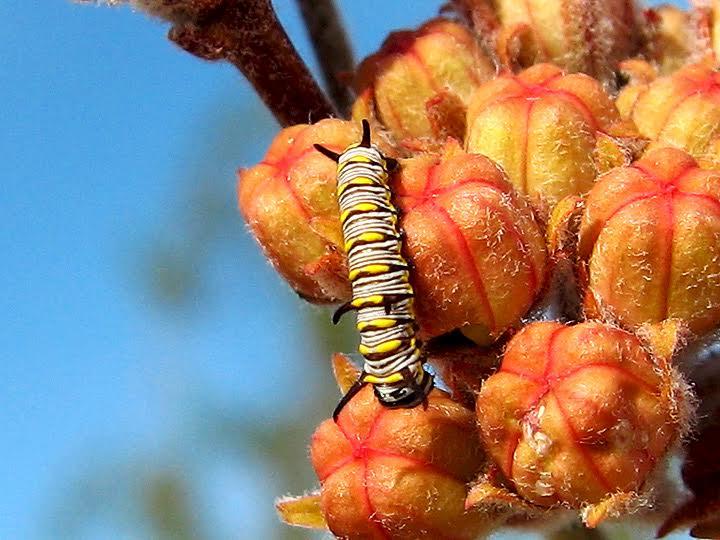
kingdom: Animalia
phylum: Arthropoda
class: Insecta
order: Lepidoptera
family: Nymphalidae
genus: Danaus
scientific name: Danaus gilippus
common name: Queen
